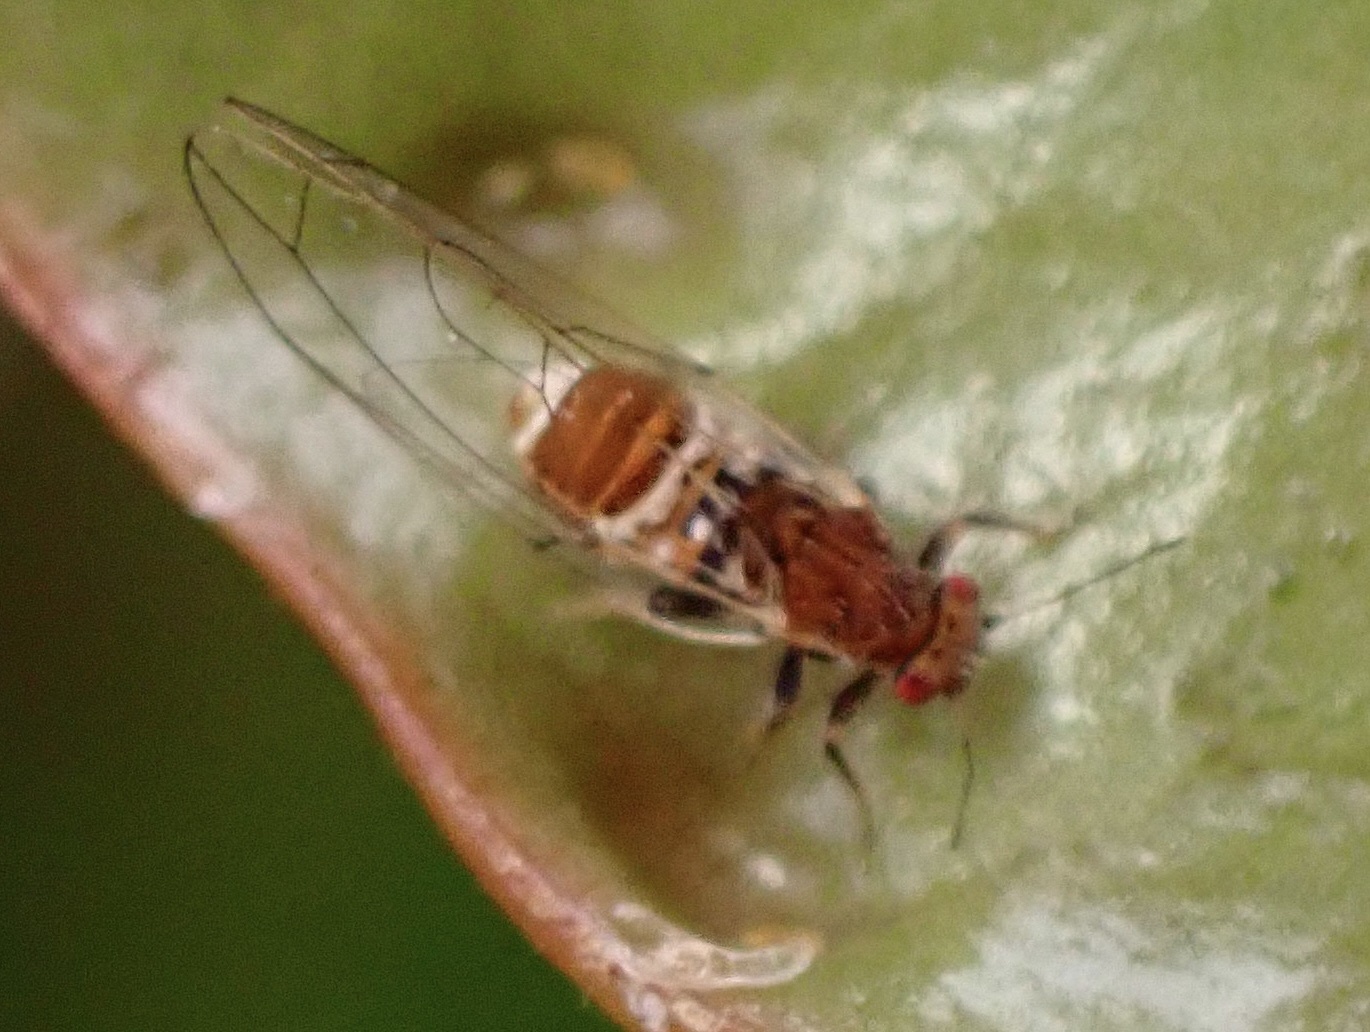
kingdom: Animalia
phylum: Arthropoda
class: Insecta
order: Hemiptera
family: Triozidae
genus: Trioza
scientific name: Trioza adventicia
